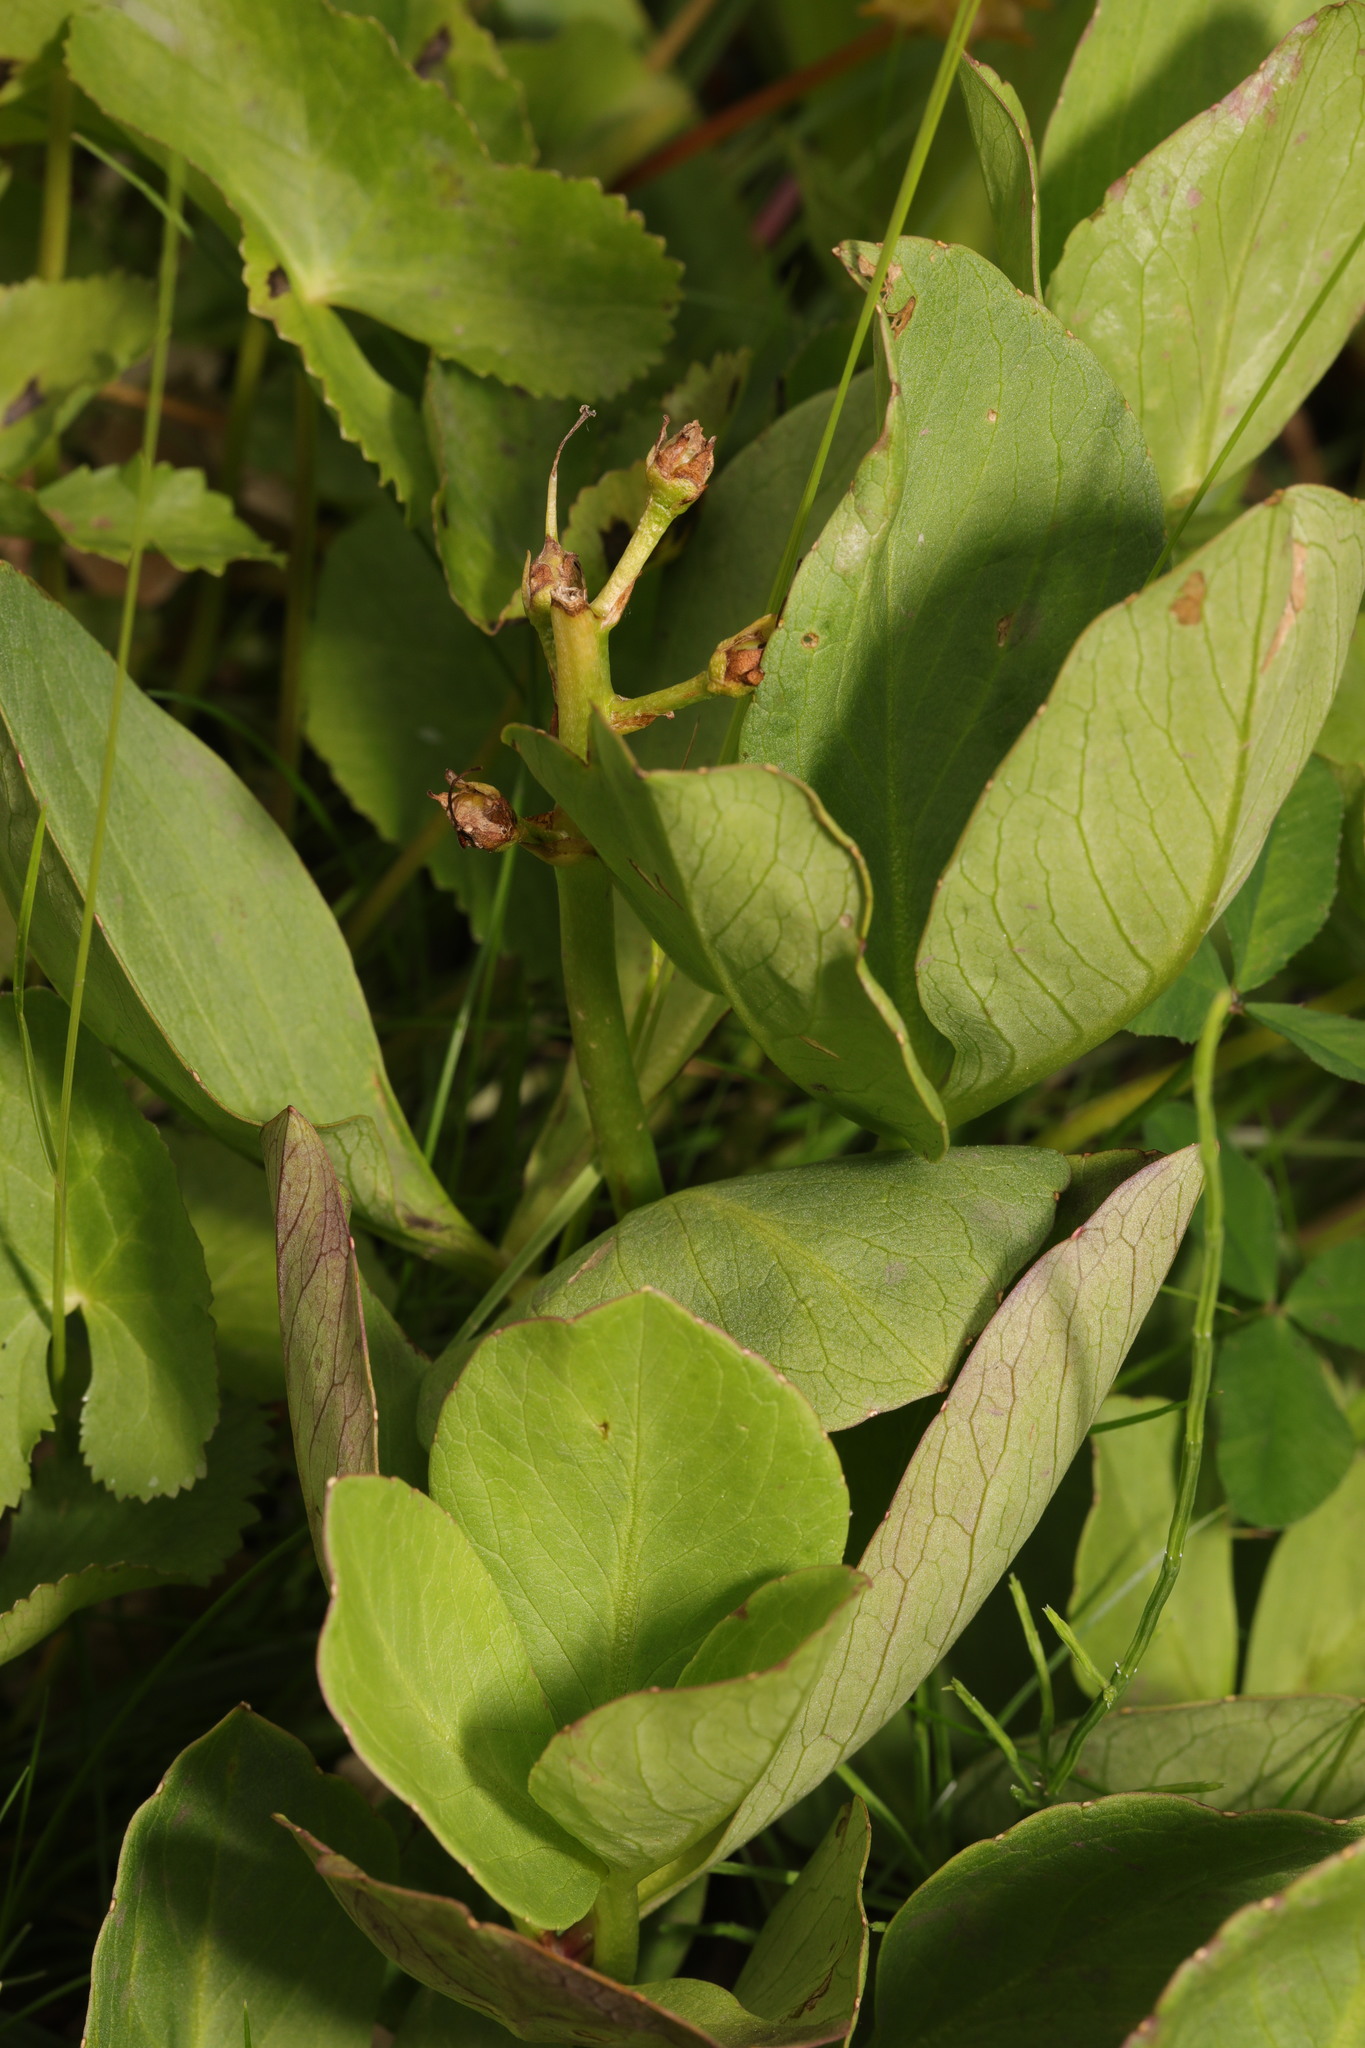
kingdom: Plantae
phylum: Tracheophyta
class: Magnoliopsida
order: Asterales
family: Menyanthaceae
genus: Menyanthes
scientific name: Menyanthes trifoliata
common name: Bogbean
